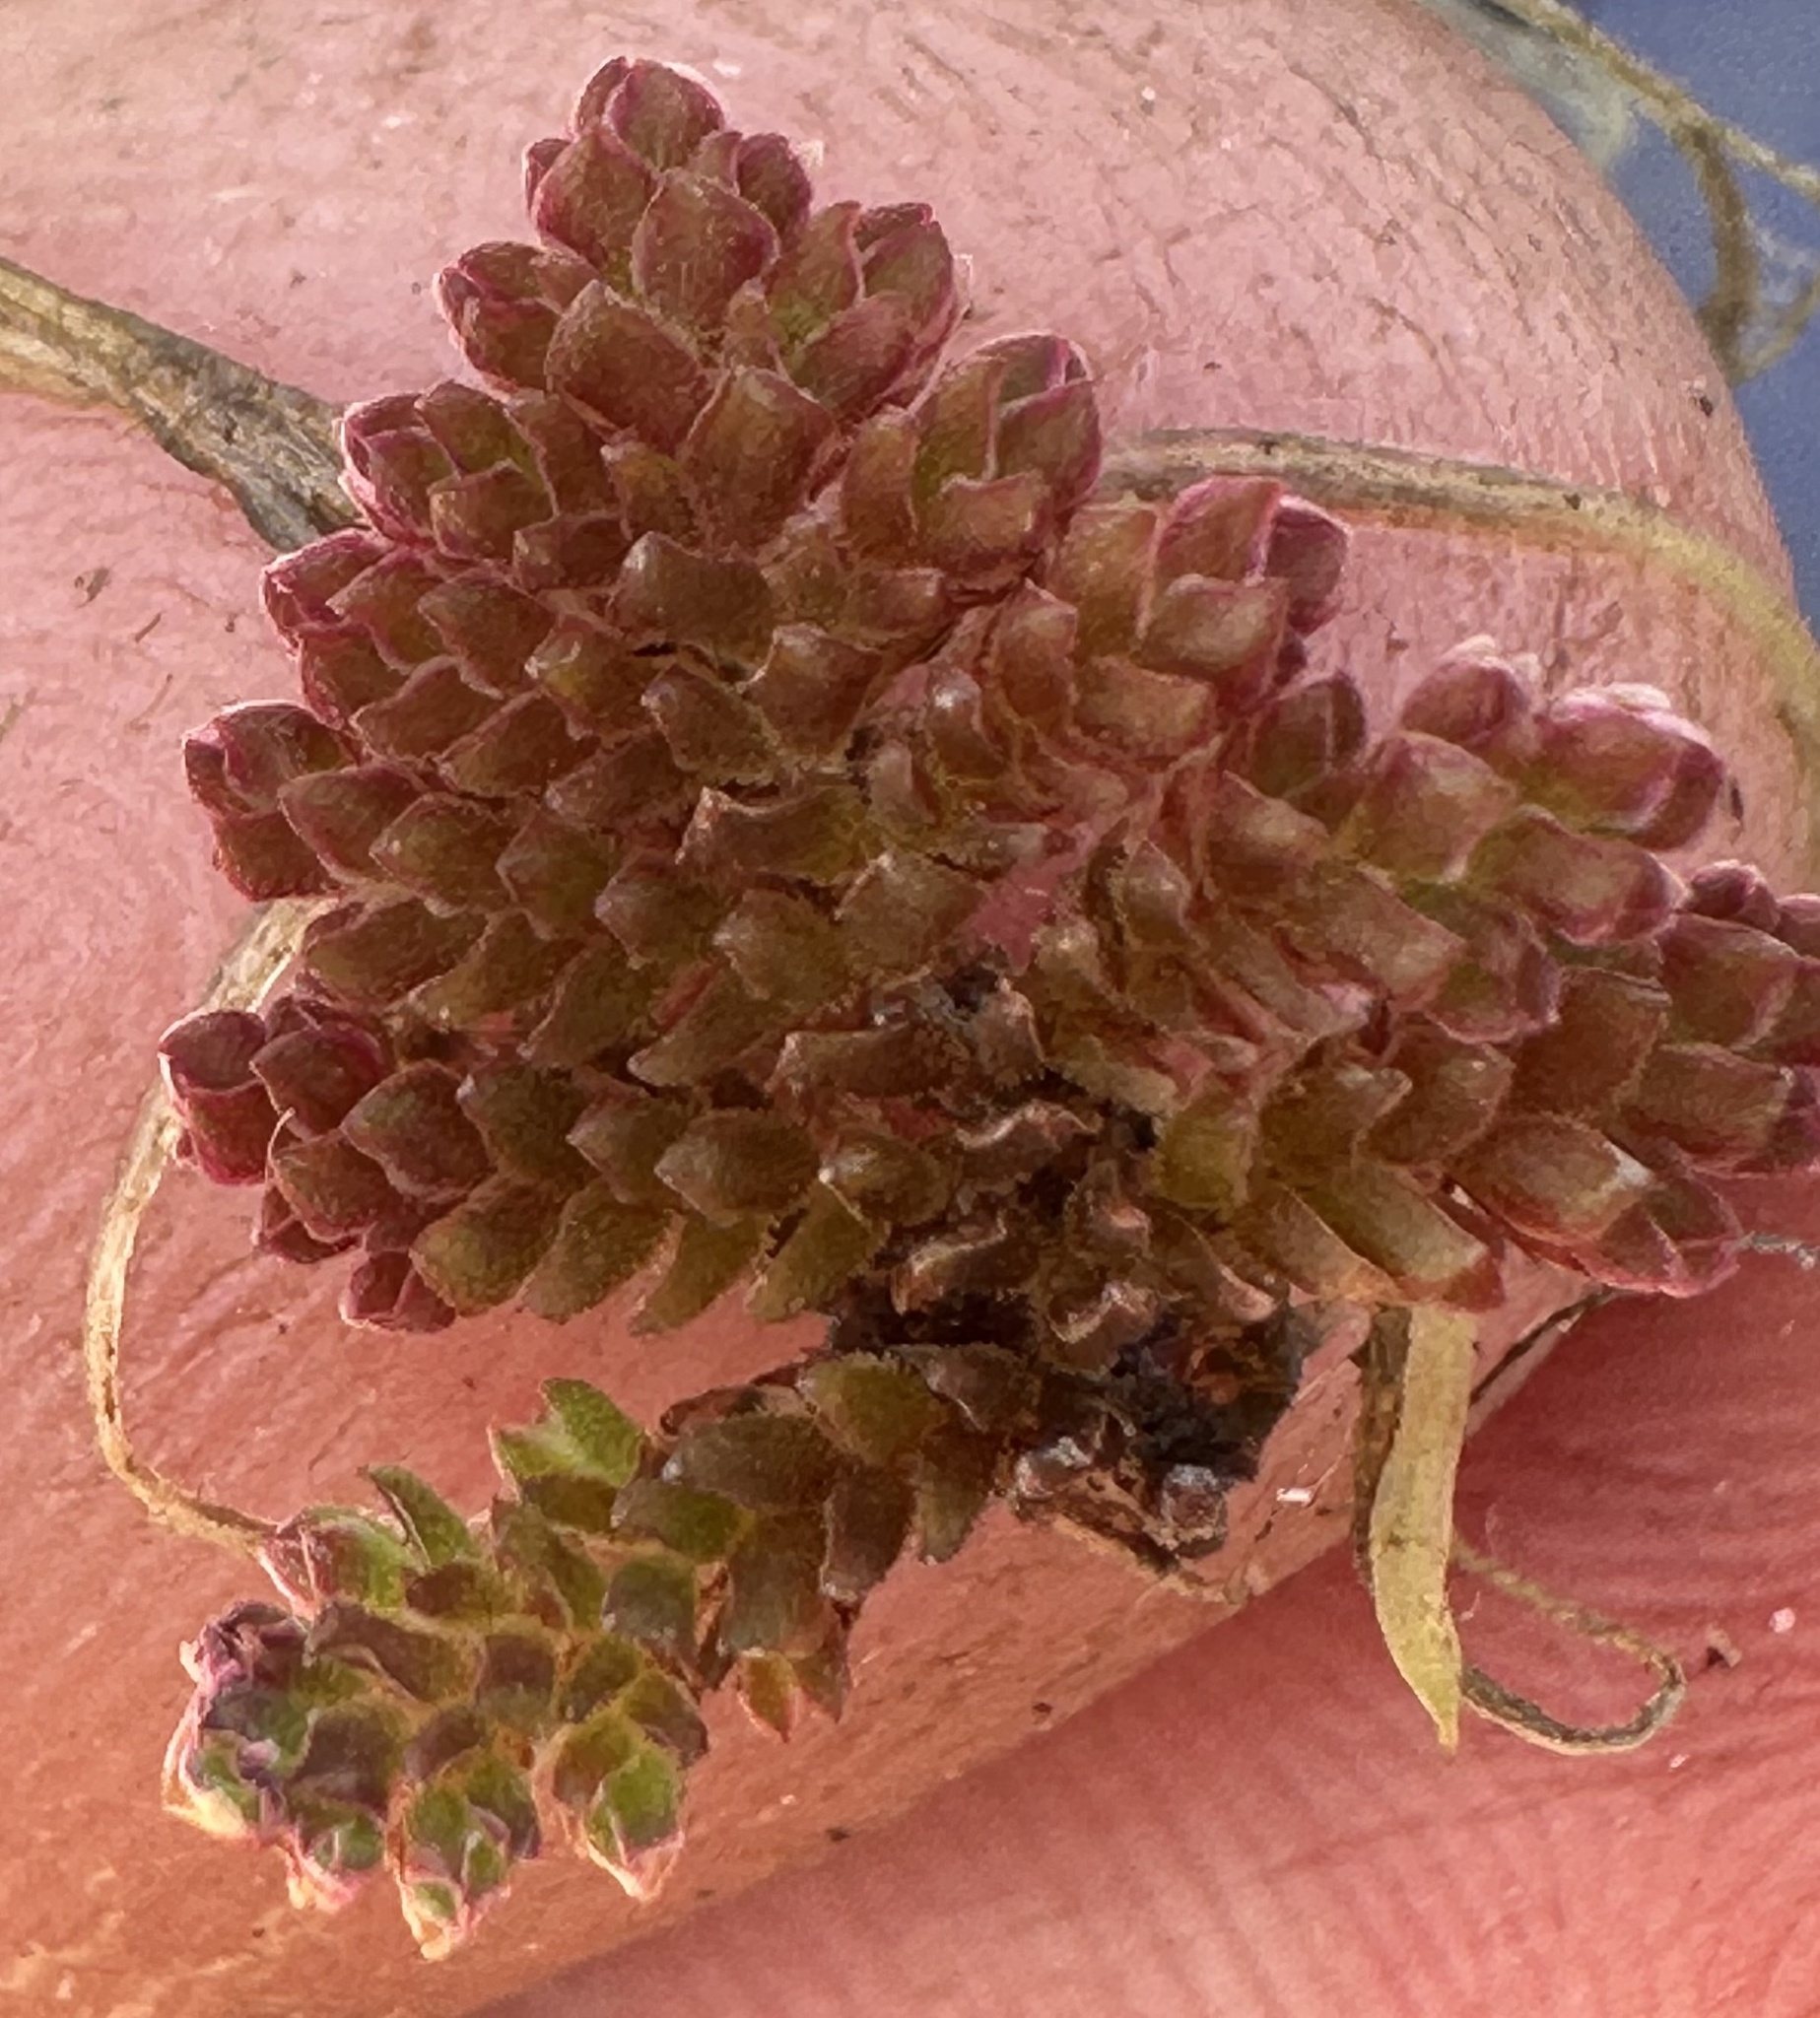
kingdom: Plantae
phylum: Tracheophyta
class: Polypodiopsida
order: Salviniales
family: Salviniaceae
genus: Azolla
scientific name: Azolla pinnata
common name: Ferny azolla
